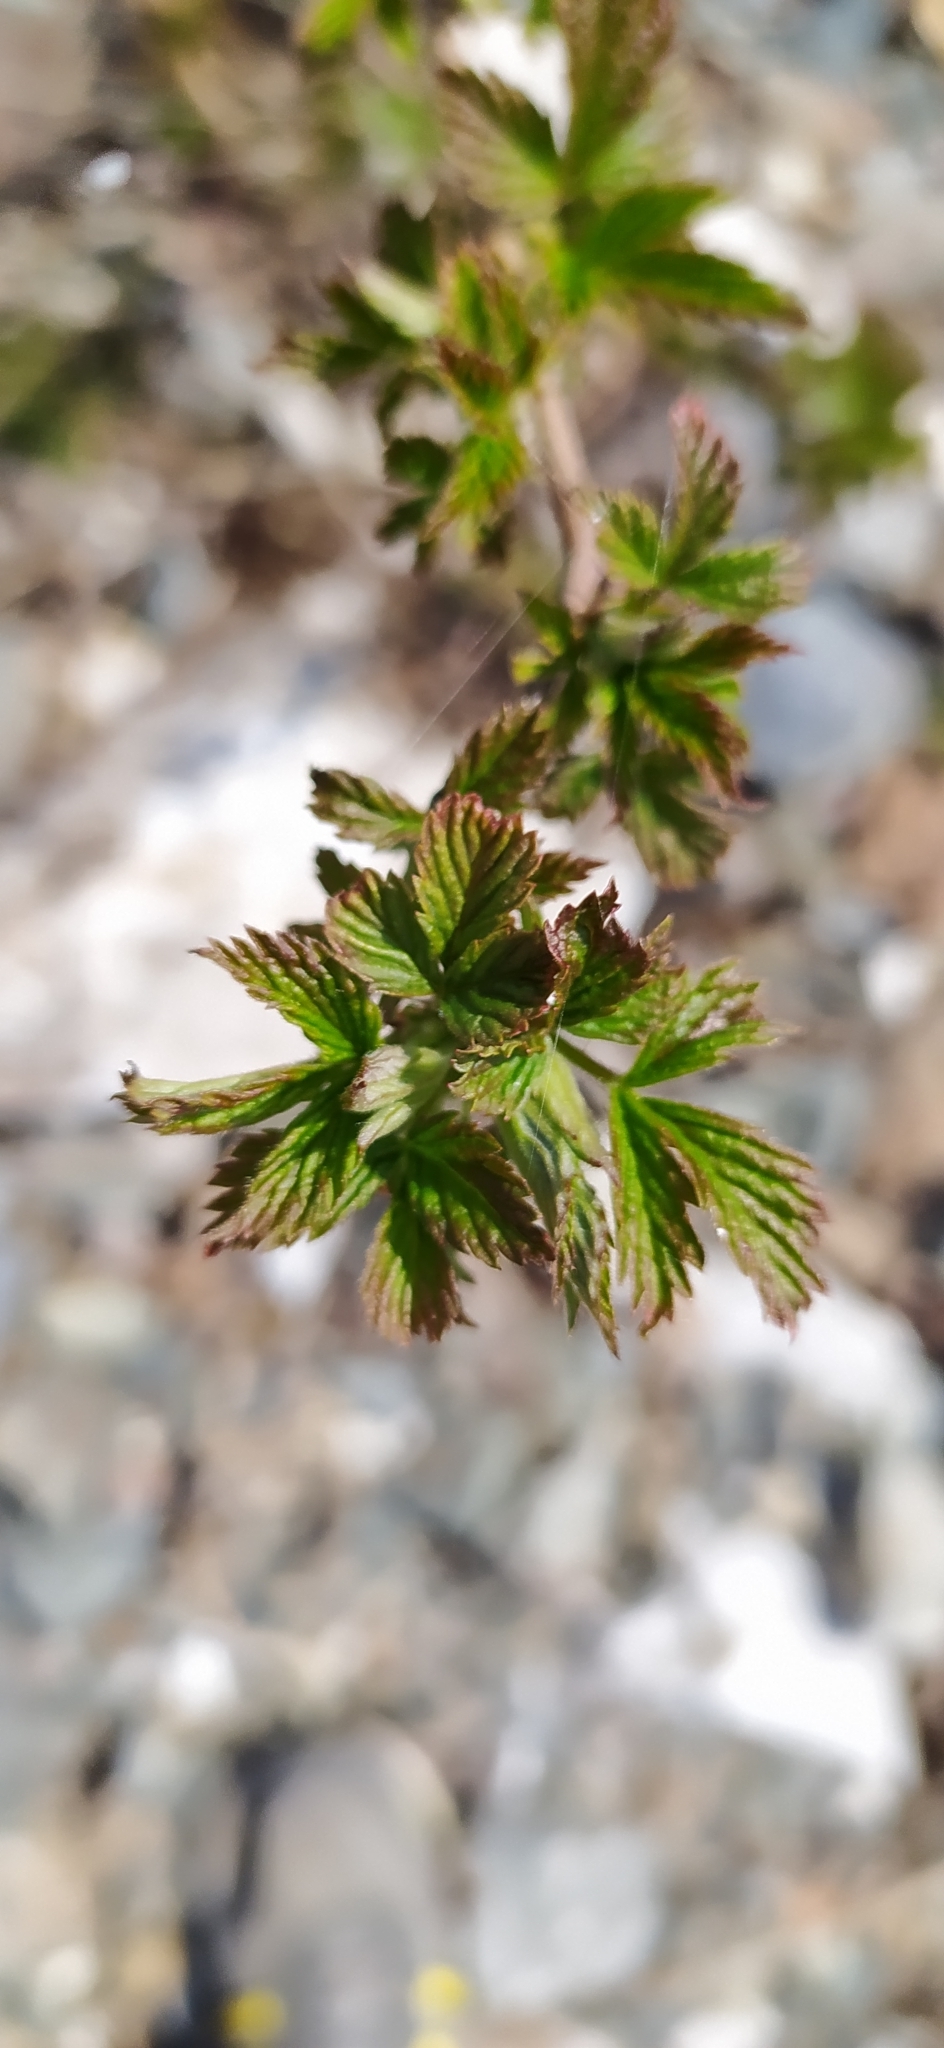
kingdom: Plantae
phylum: Tracheophyta
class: Magnoliopsida
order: Rosales
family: Rosaceae
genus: Rubus
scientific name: Rubus idaeus
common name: Raspberry
